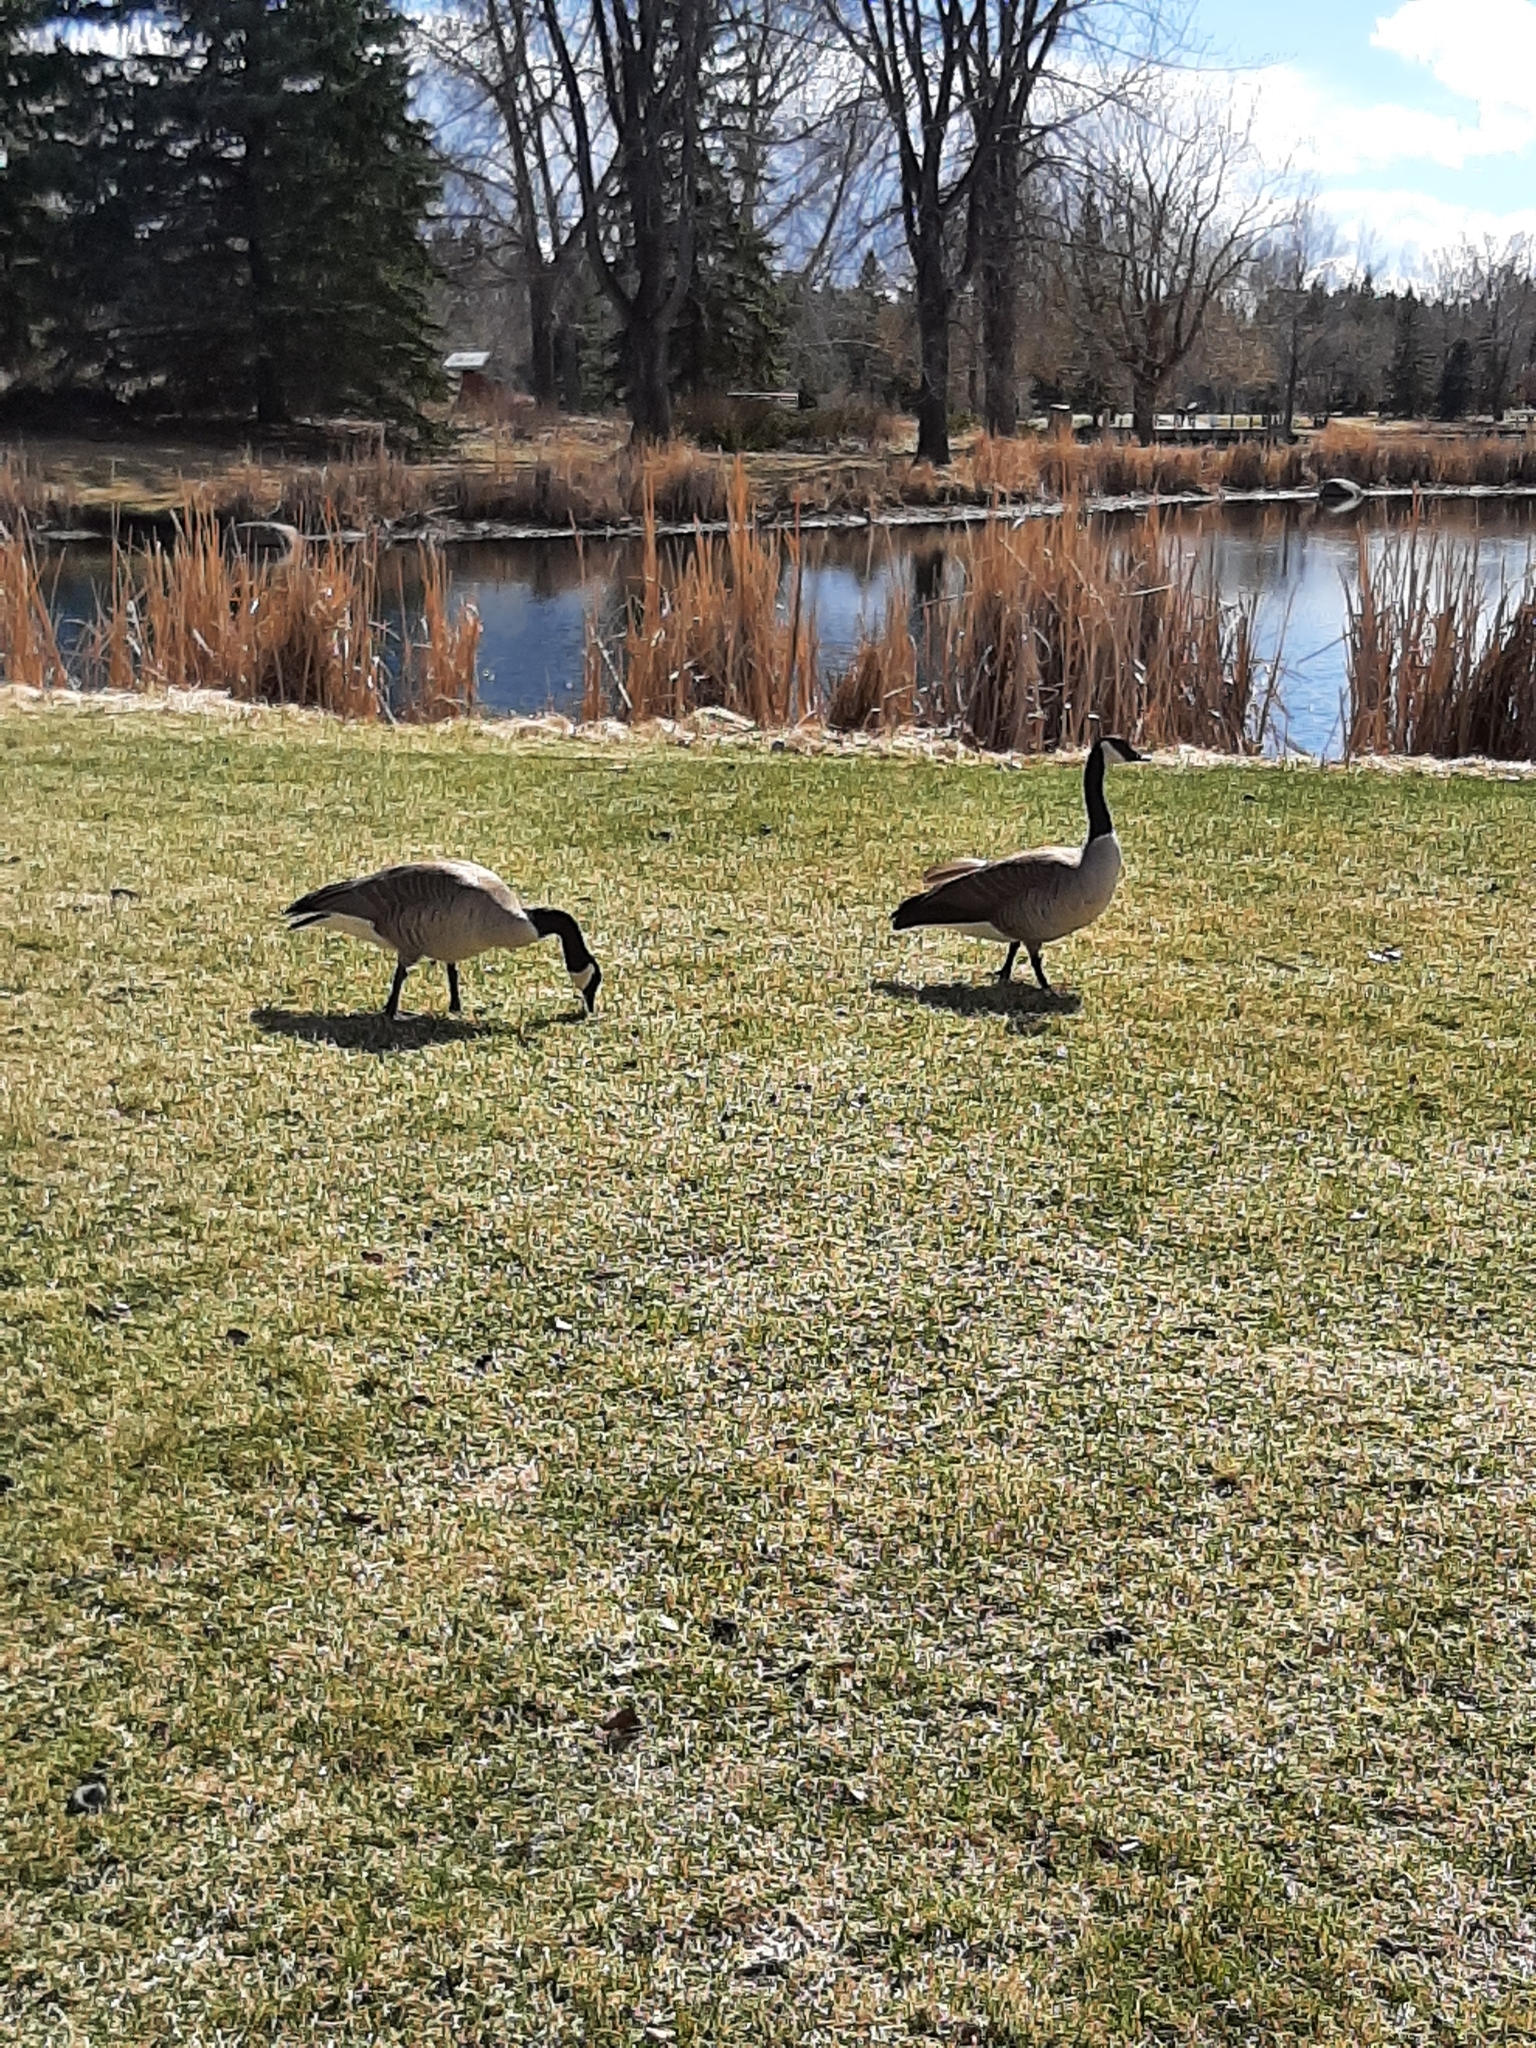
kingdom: Animalia
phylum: Chordata
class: Aves
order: Anseriformes
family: Anatidae
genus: Branta
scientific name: Branta canadensis
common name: Canada goose
